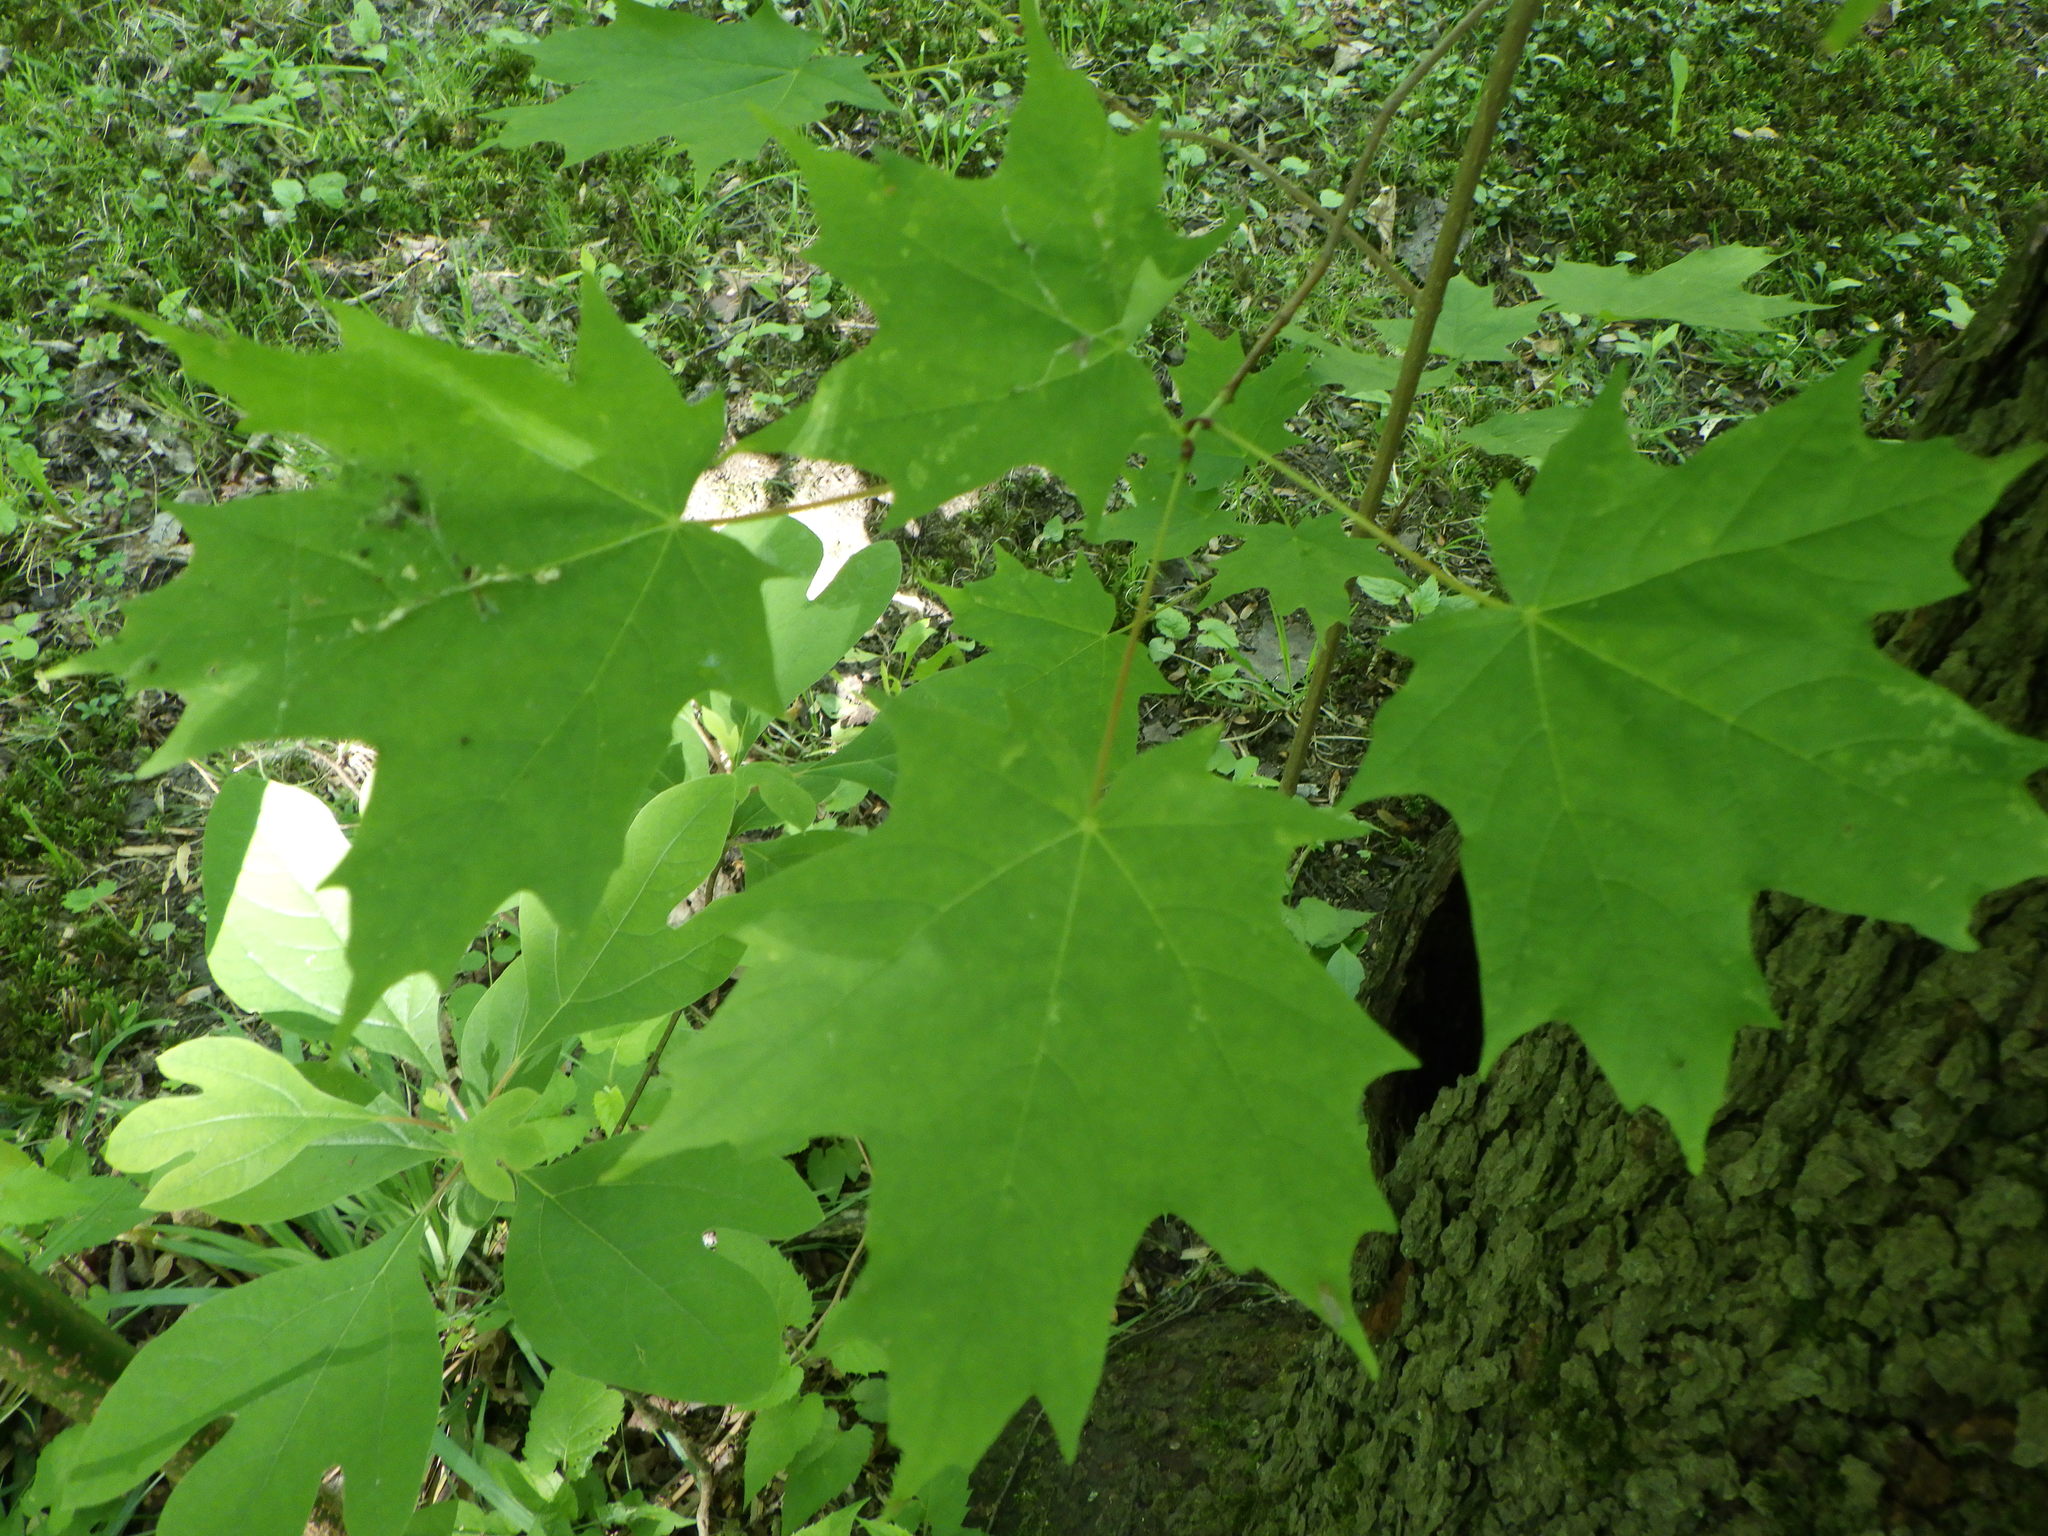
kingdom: Plantae
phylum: Tracheophyta
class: Magnoliopsida
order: Sapindales
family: Sapindaceae
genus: Acer
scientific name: Acer saccharum
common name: Sugar maple
